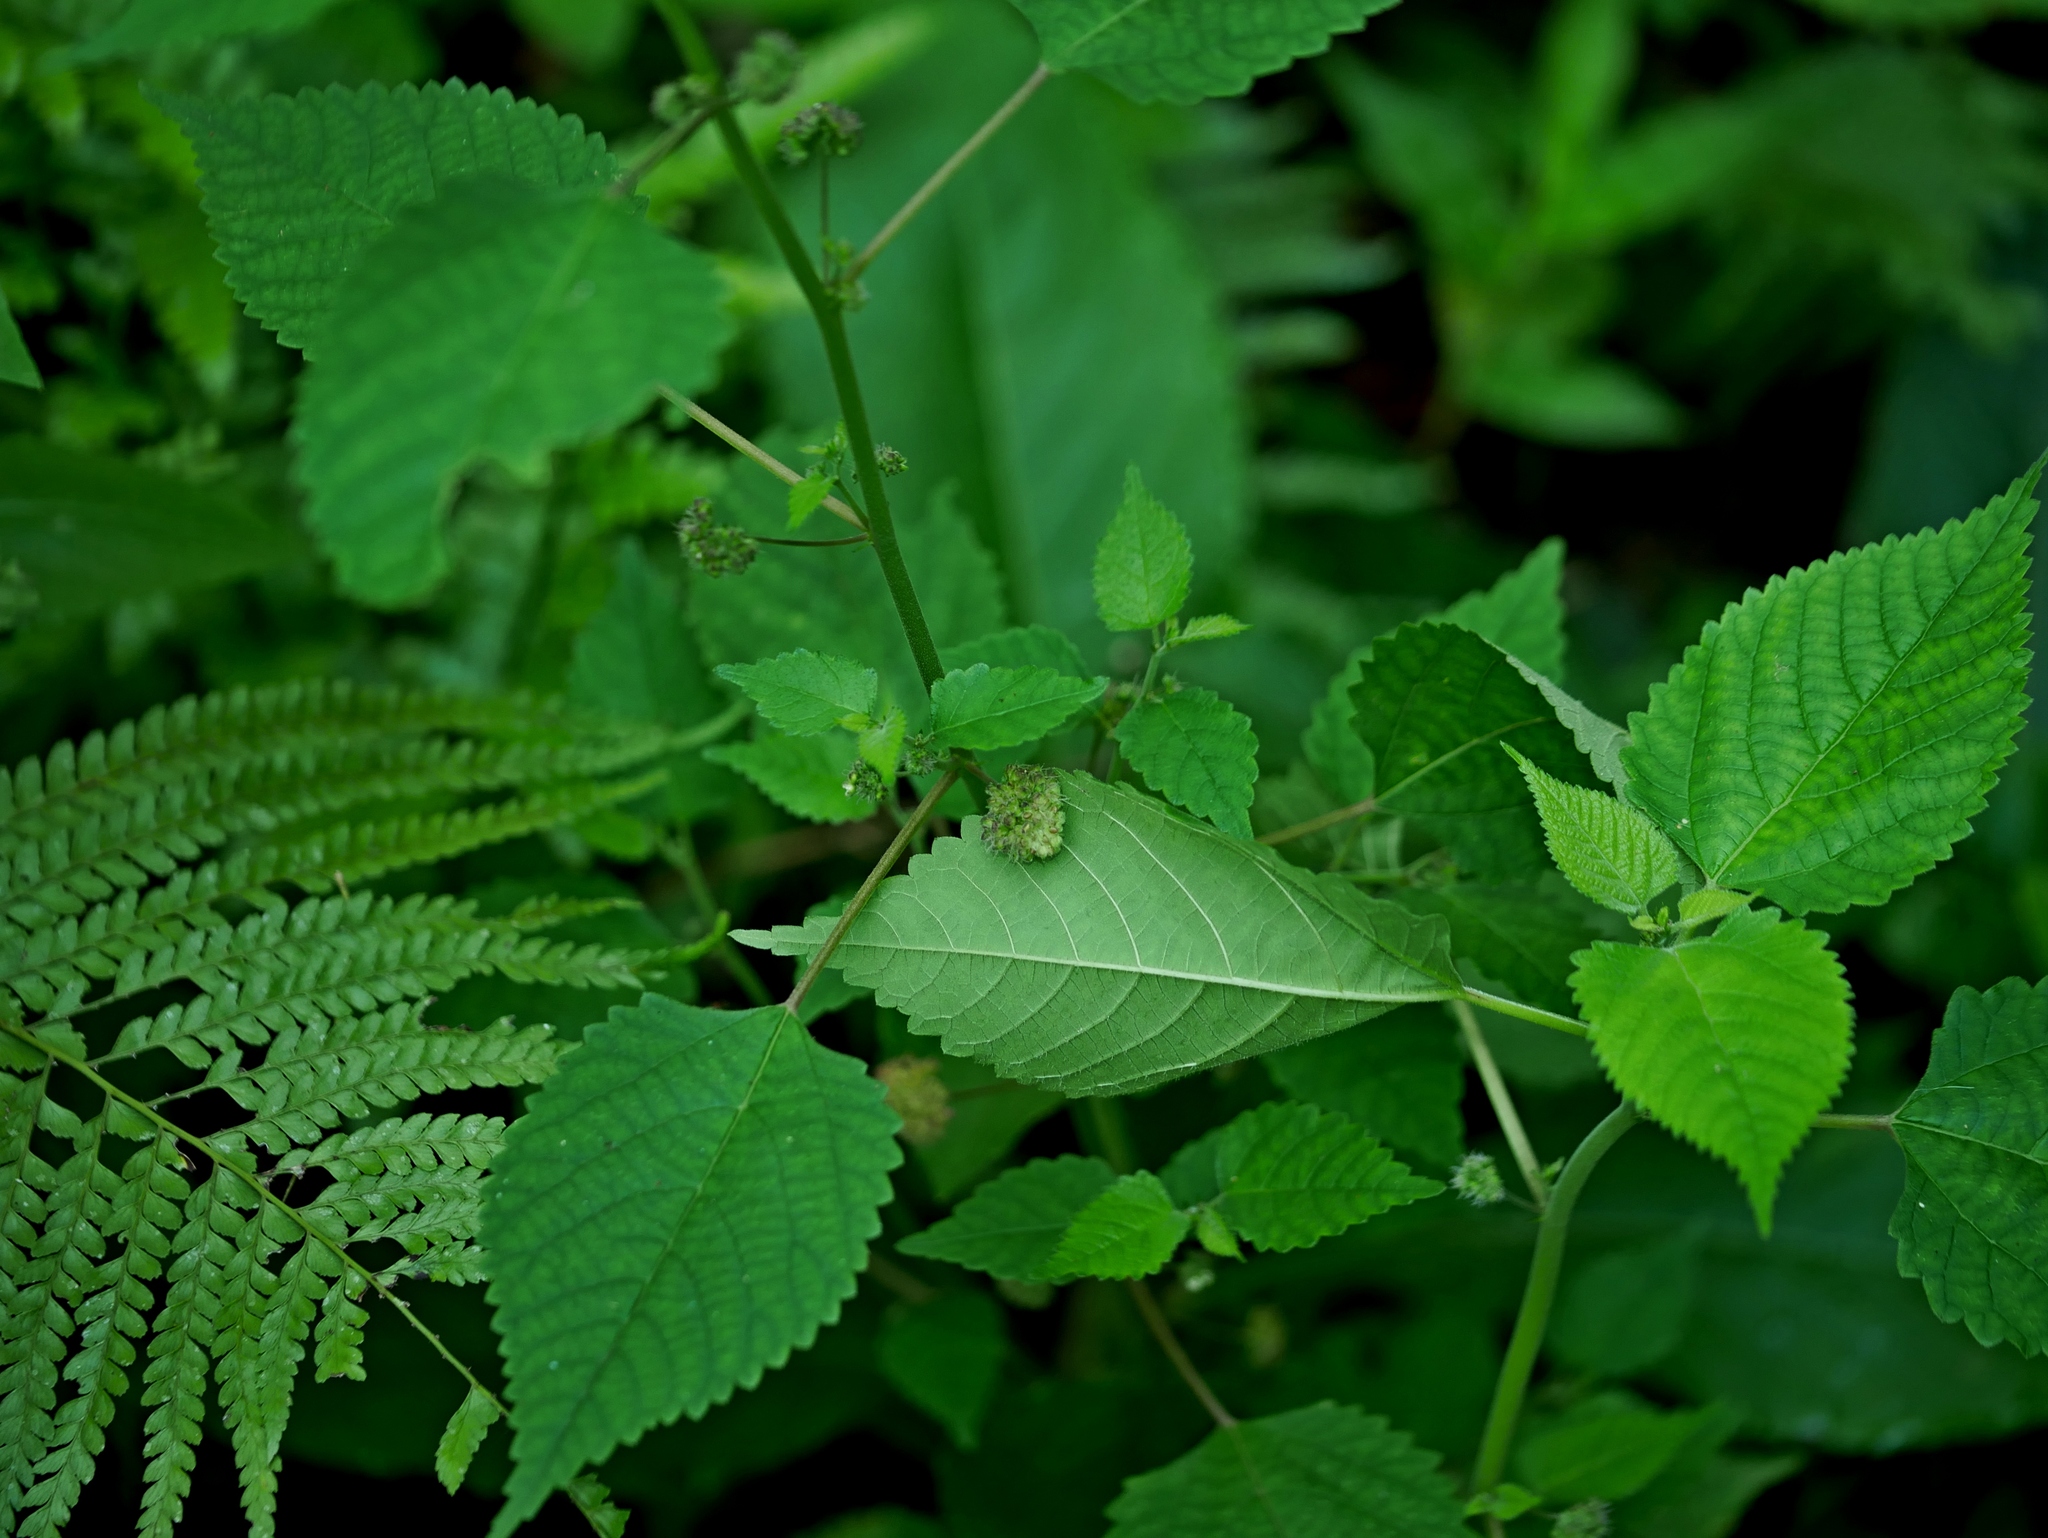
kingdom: Plantae
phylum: Tracheophyta
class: Magnoliopsida
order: Rosales
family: Moraceae
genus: Fatoua
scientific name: Fatoua villosa
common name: Hairy crabweed
